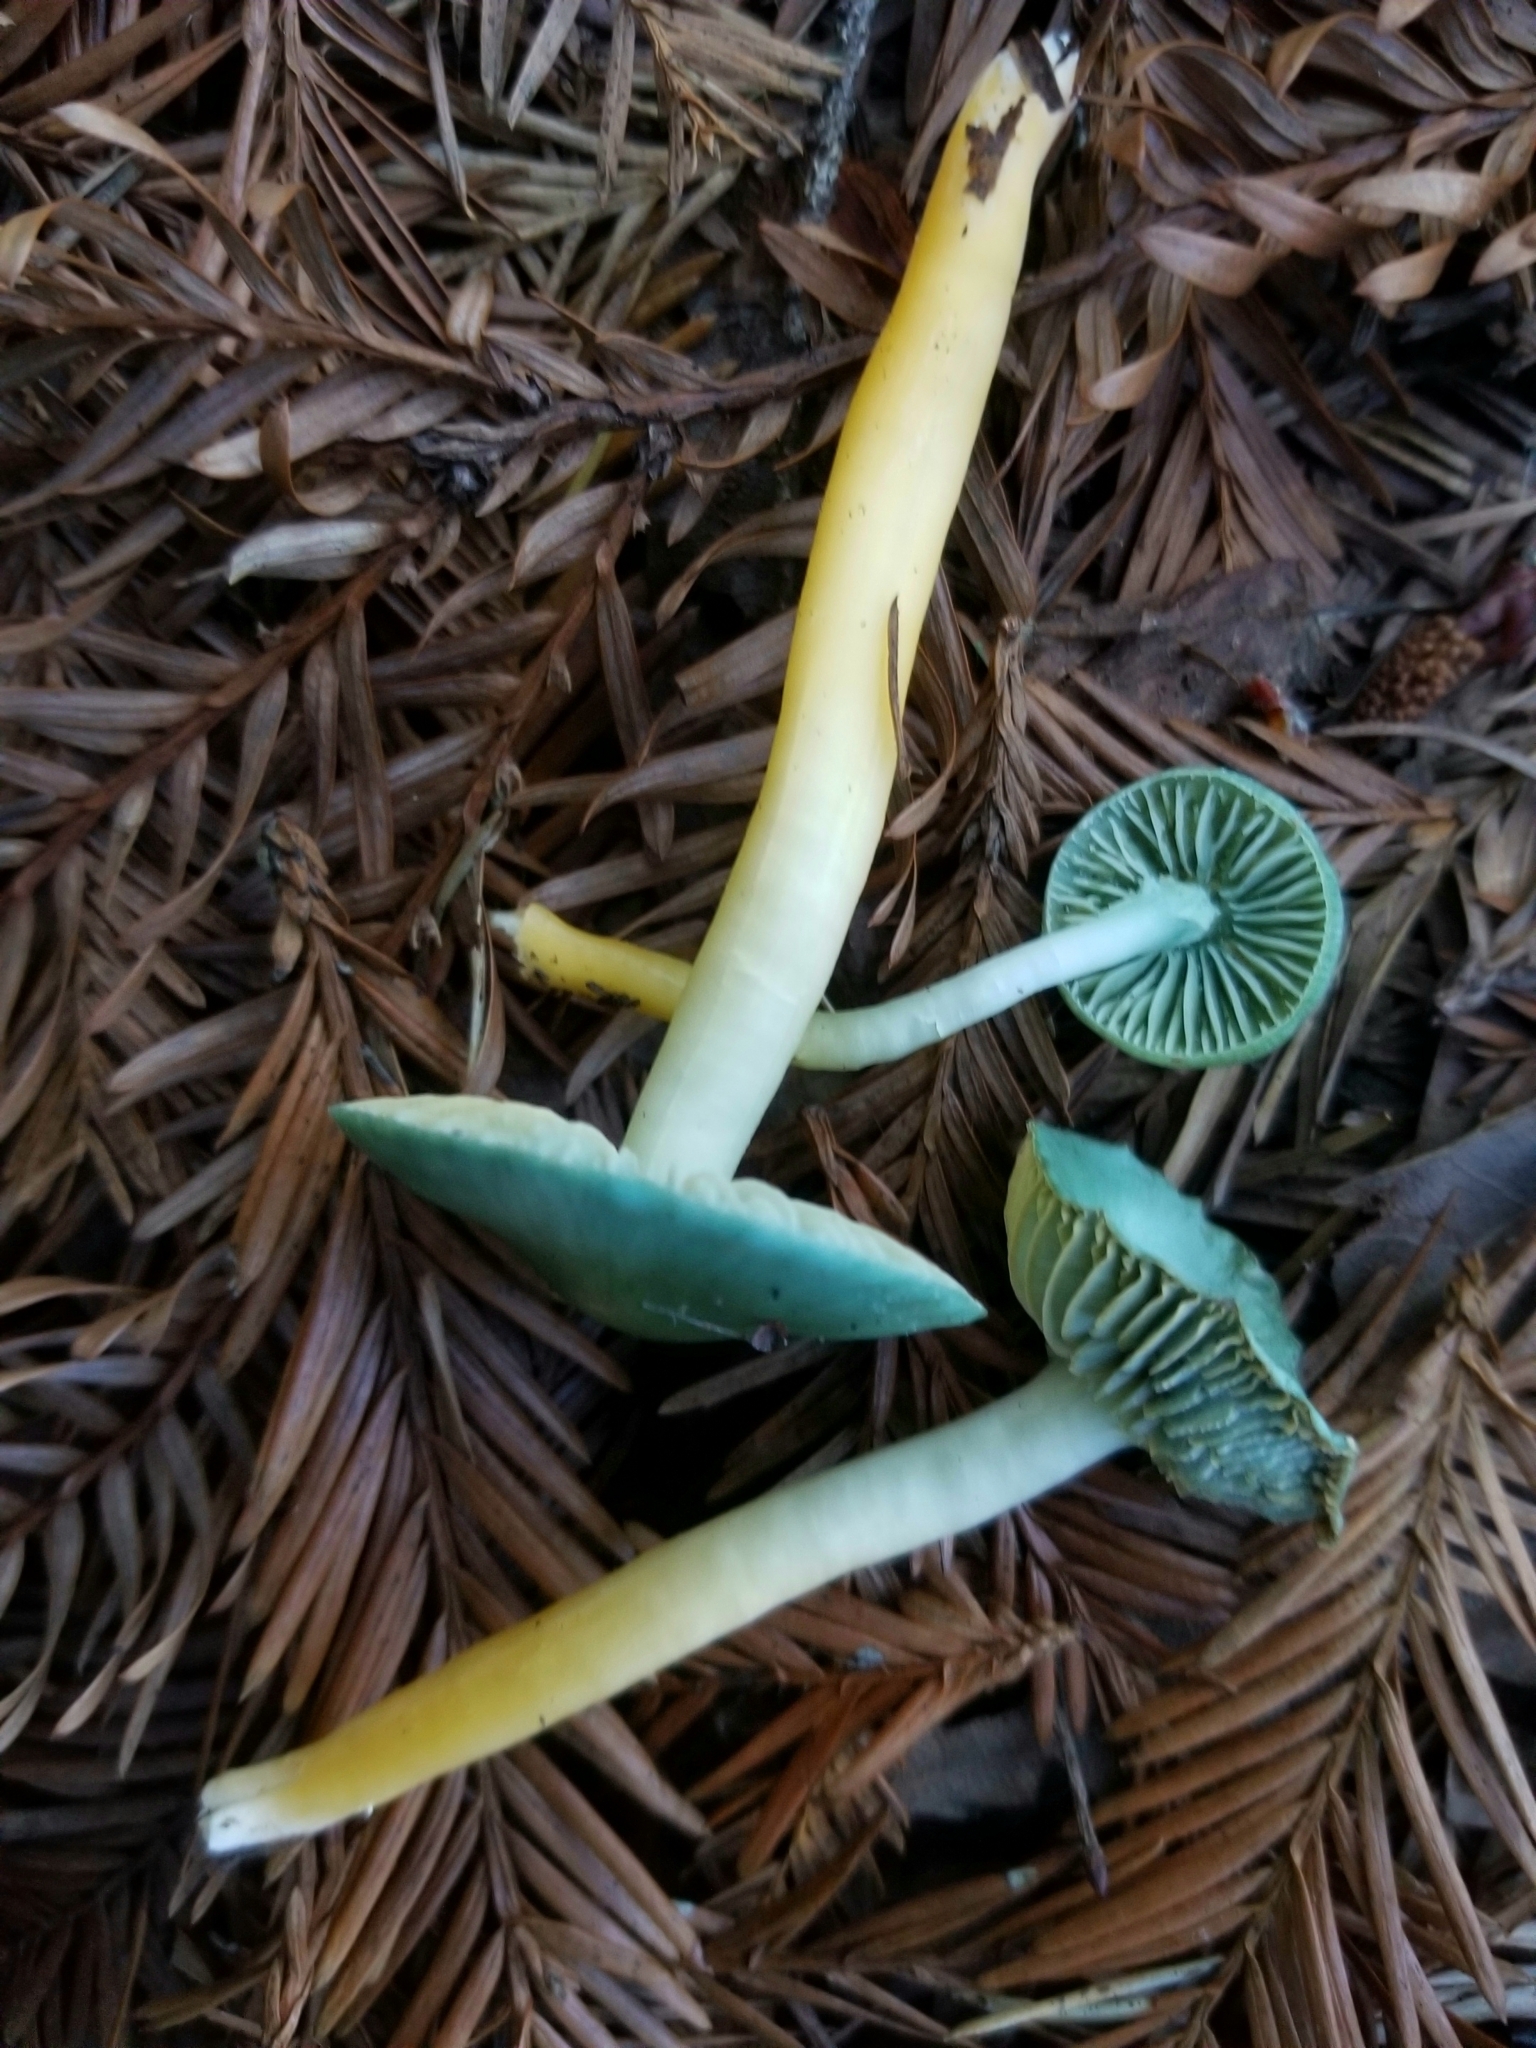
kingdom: Fungi
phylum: Basidiomycota
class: Agaricomycetes
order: Agaricales
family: Hygrophoraceae
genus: Gliophorus
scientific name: Gliophorus psittacinus
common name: Parrot wax-cap
